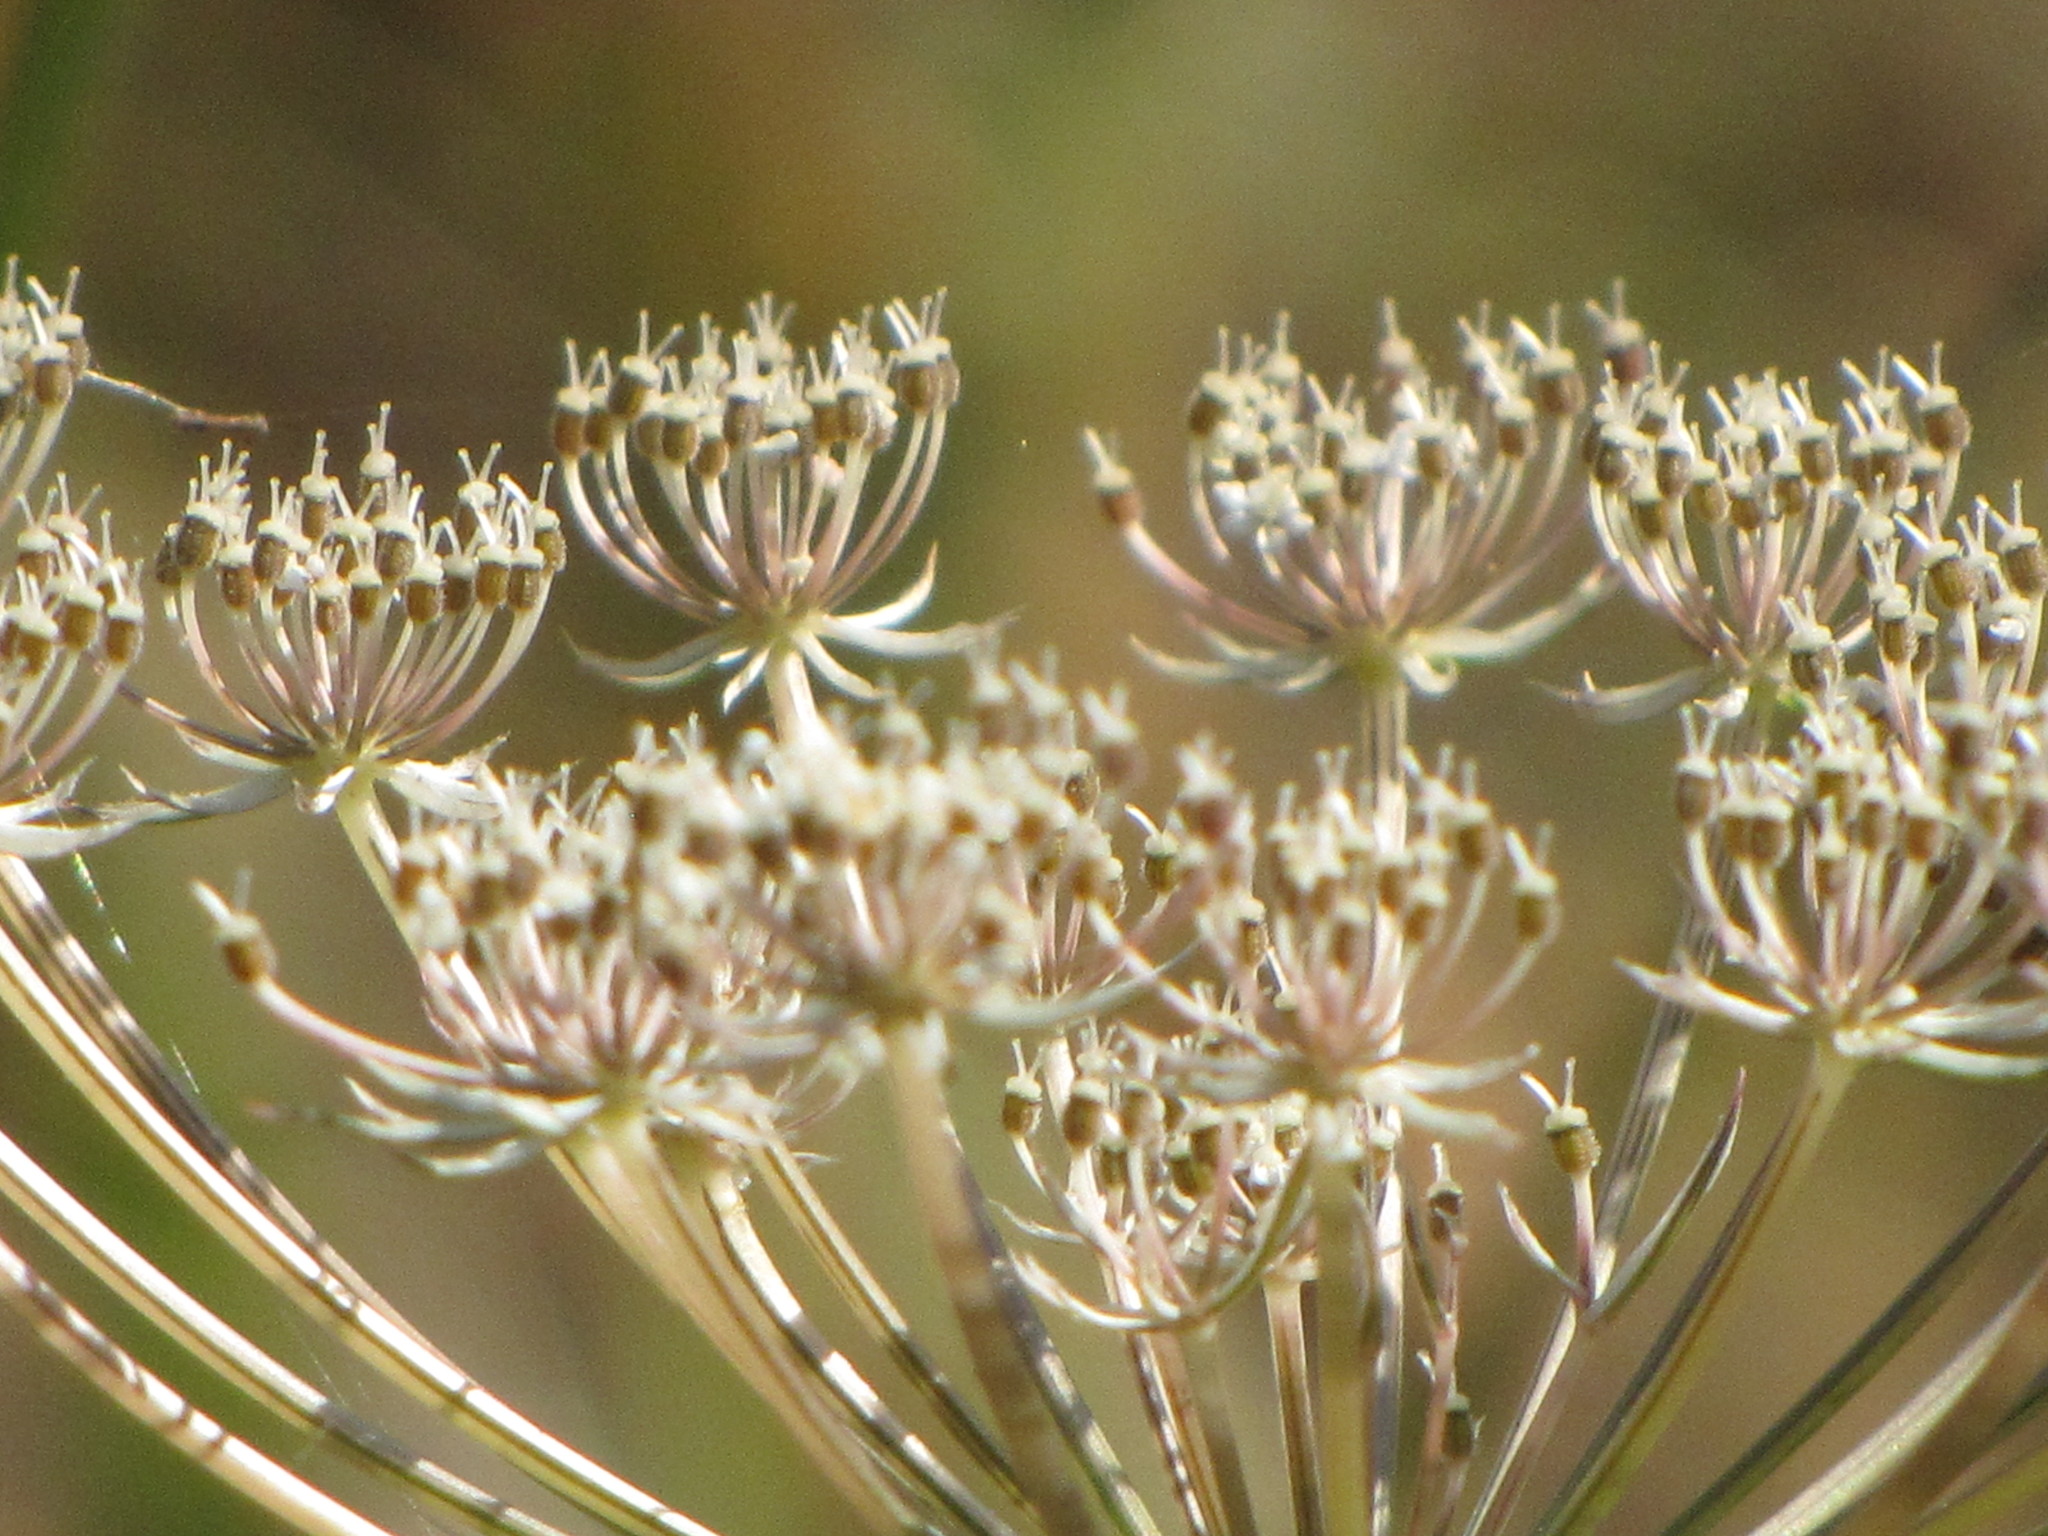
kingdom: Plantae
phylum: Tracheophyta
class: Magnoliopsida
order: Apiales
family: Apiaceae
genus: Daucus
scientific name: Daucus carota
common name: Wild carrot
